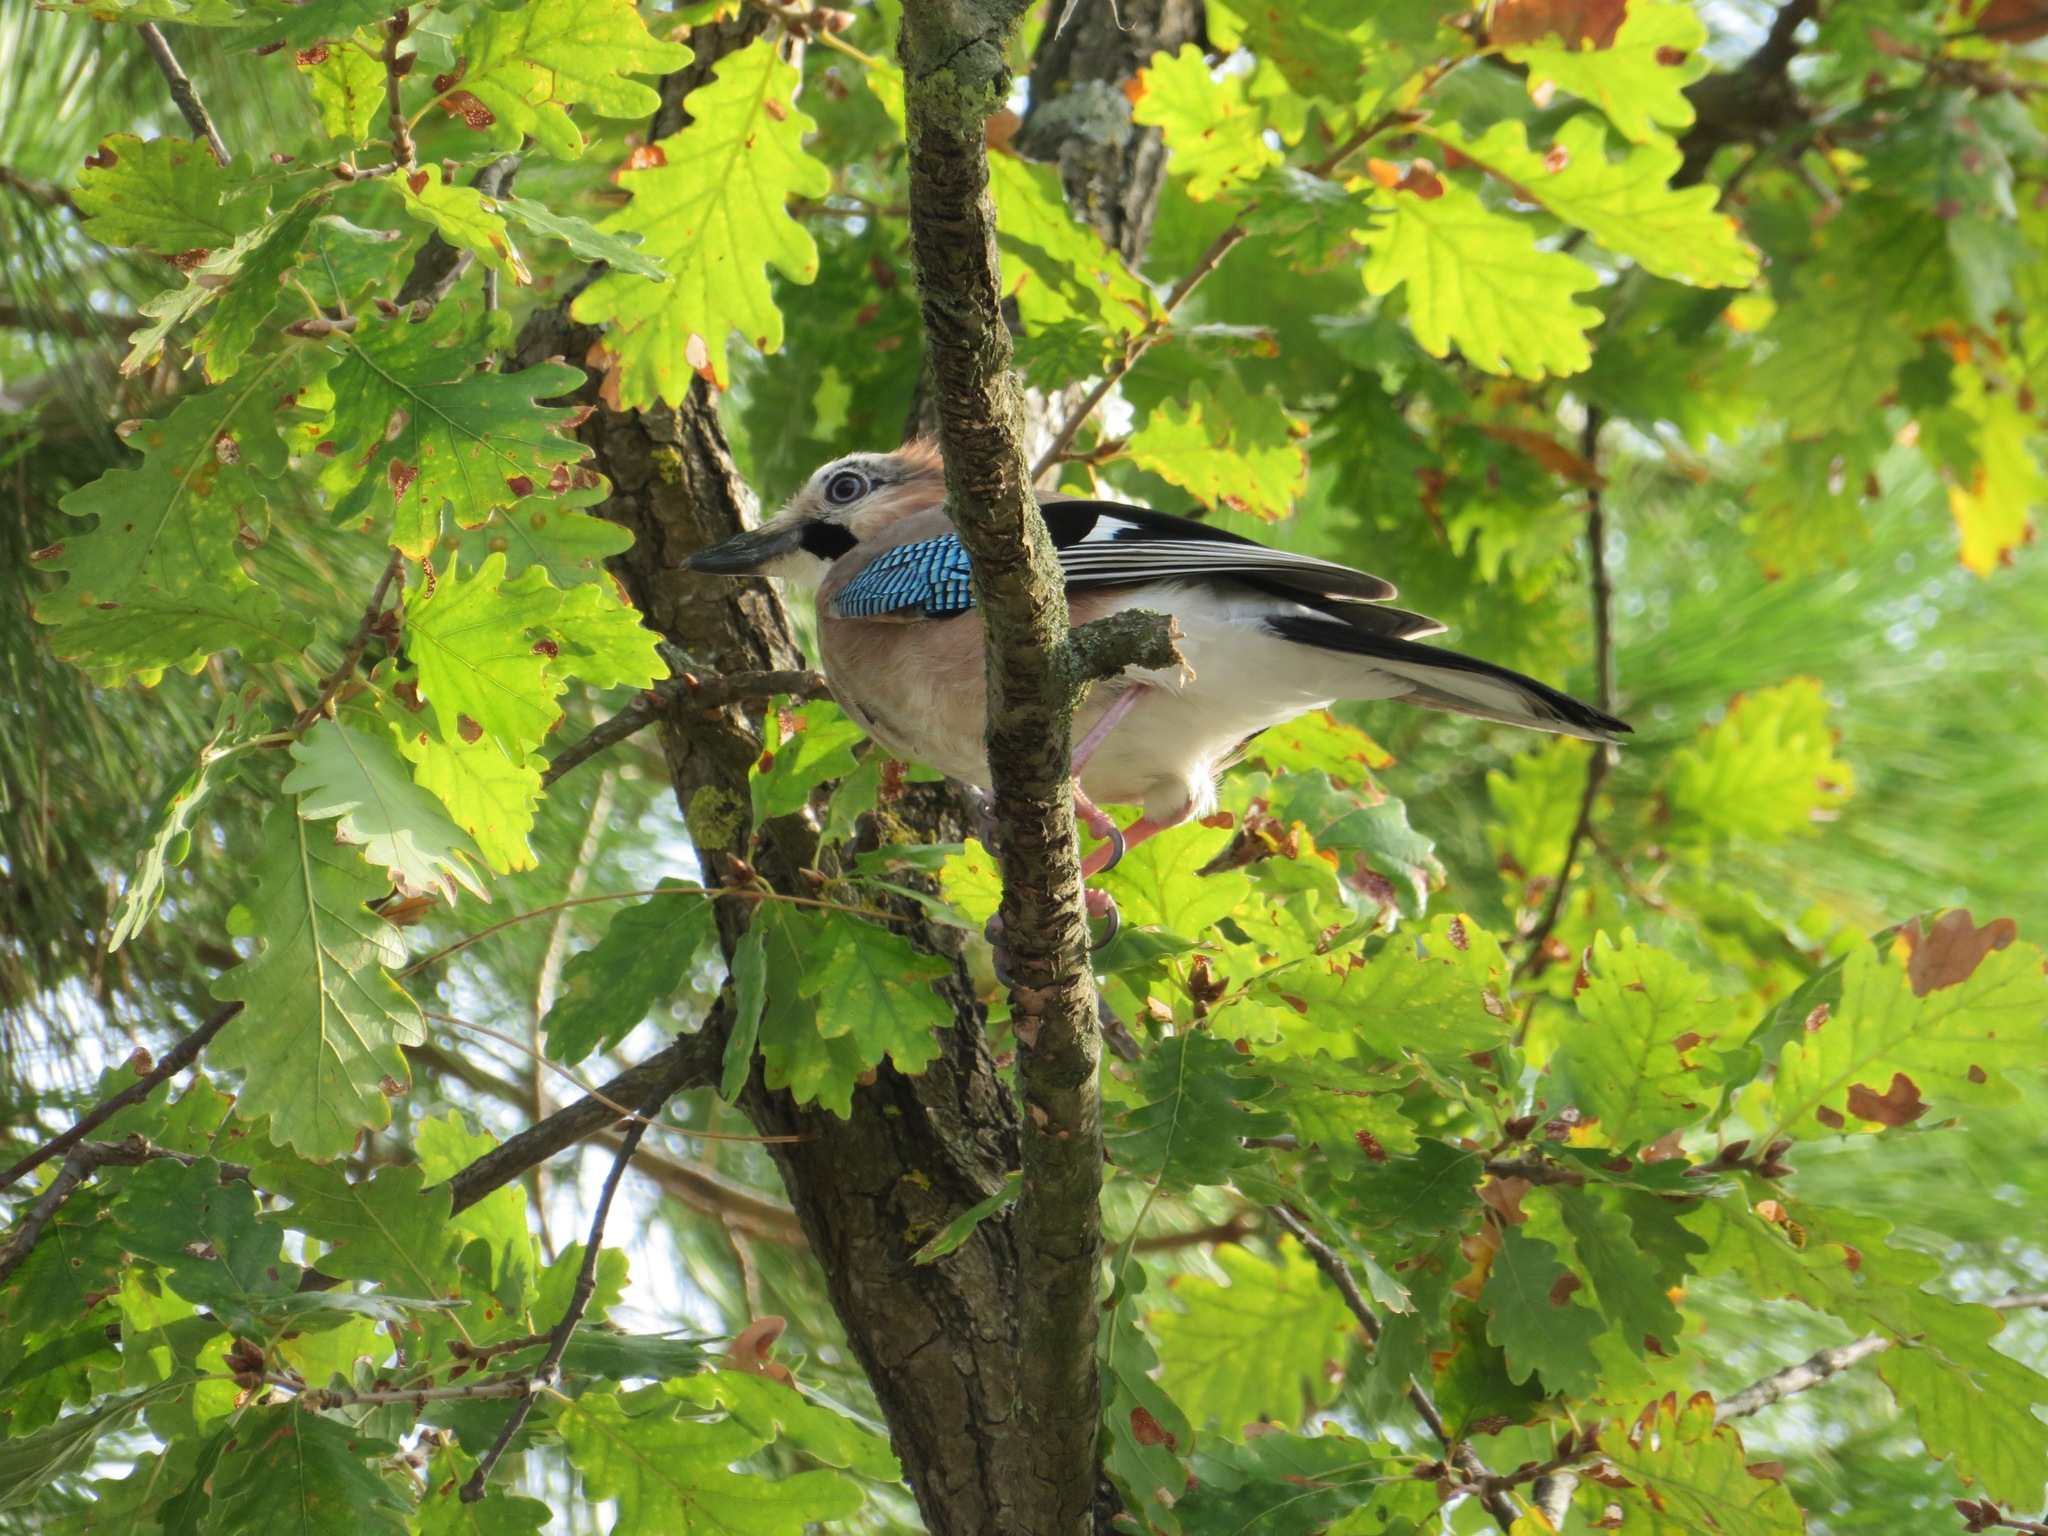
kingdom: Animalia
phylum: Chordata
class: Aves
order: Passeriformes
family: Corvidae
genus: Garrulus
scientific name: Garrulus glandarius
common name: Eurasian jay
